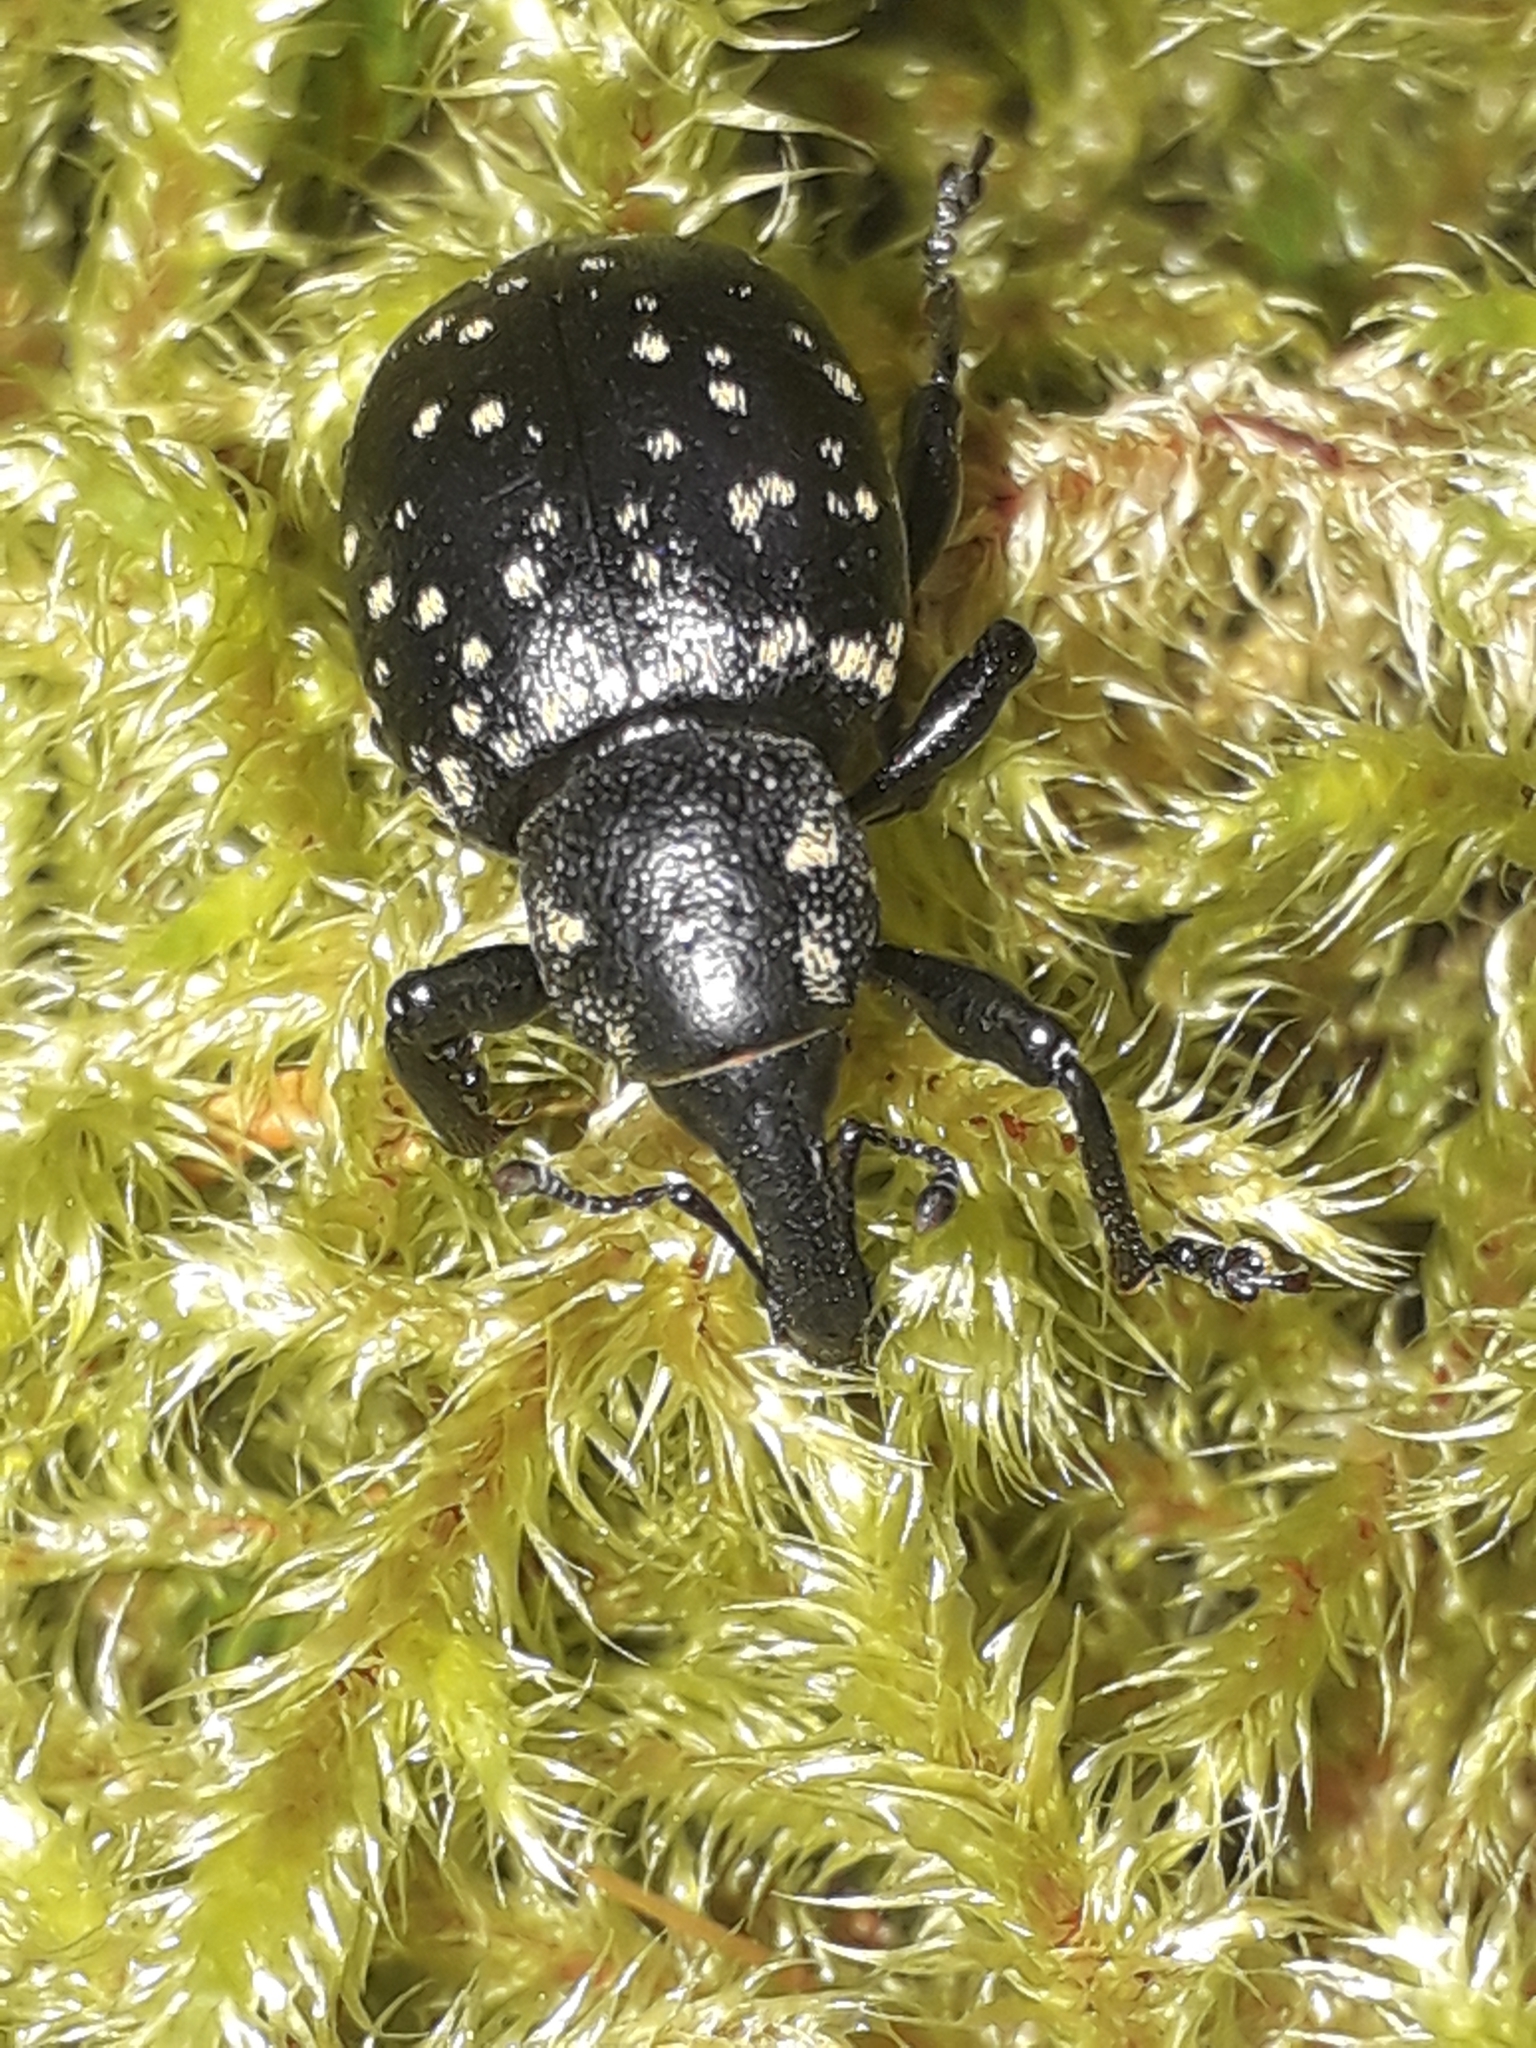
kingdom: Animalia
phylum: Arthropoda
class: Insecta
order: Coleoptera
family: Curculionidae
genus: Liparus
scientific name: Liparus germanus
